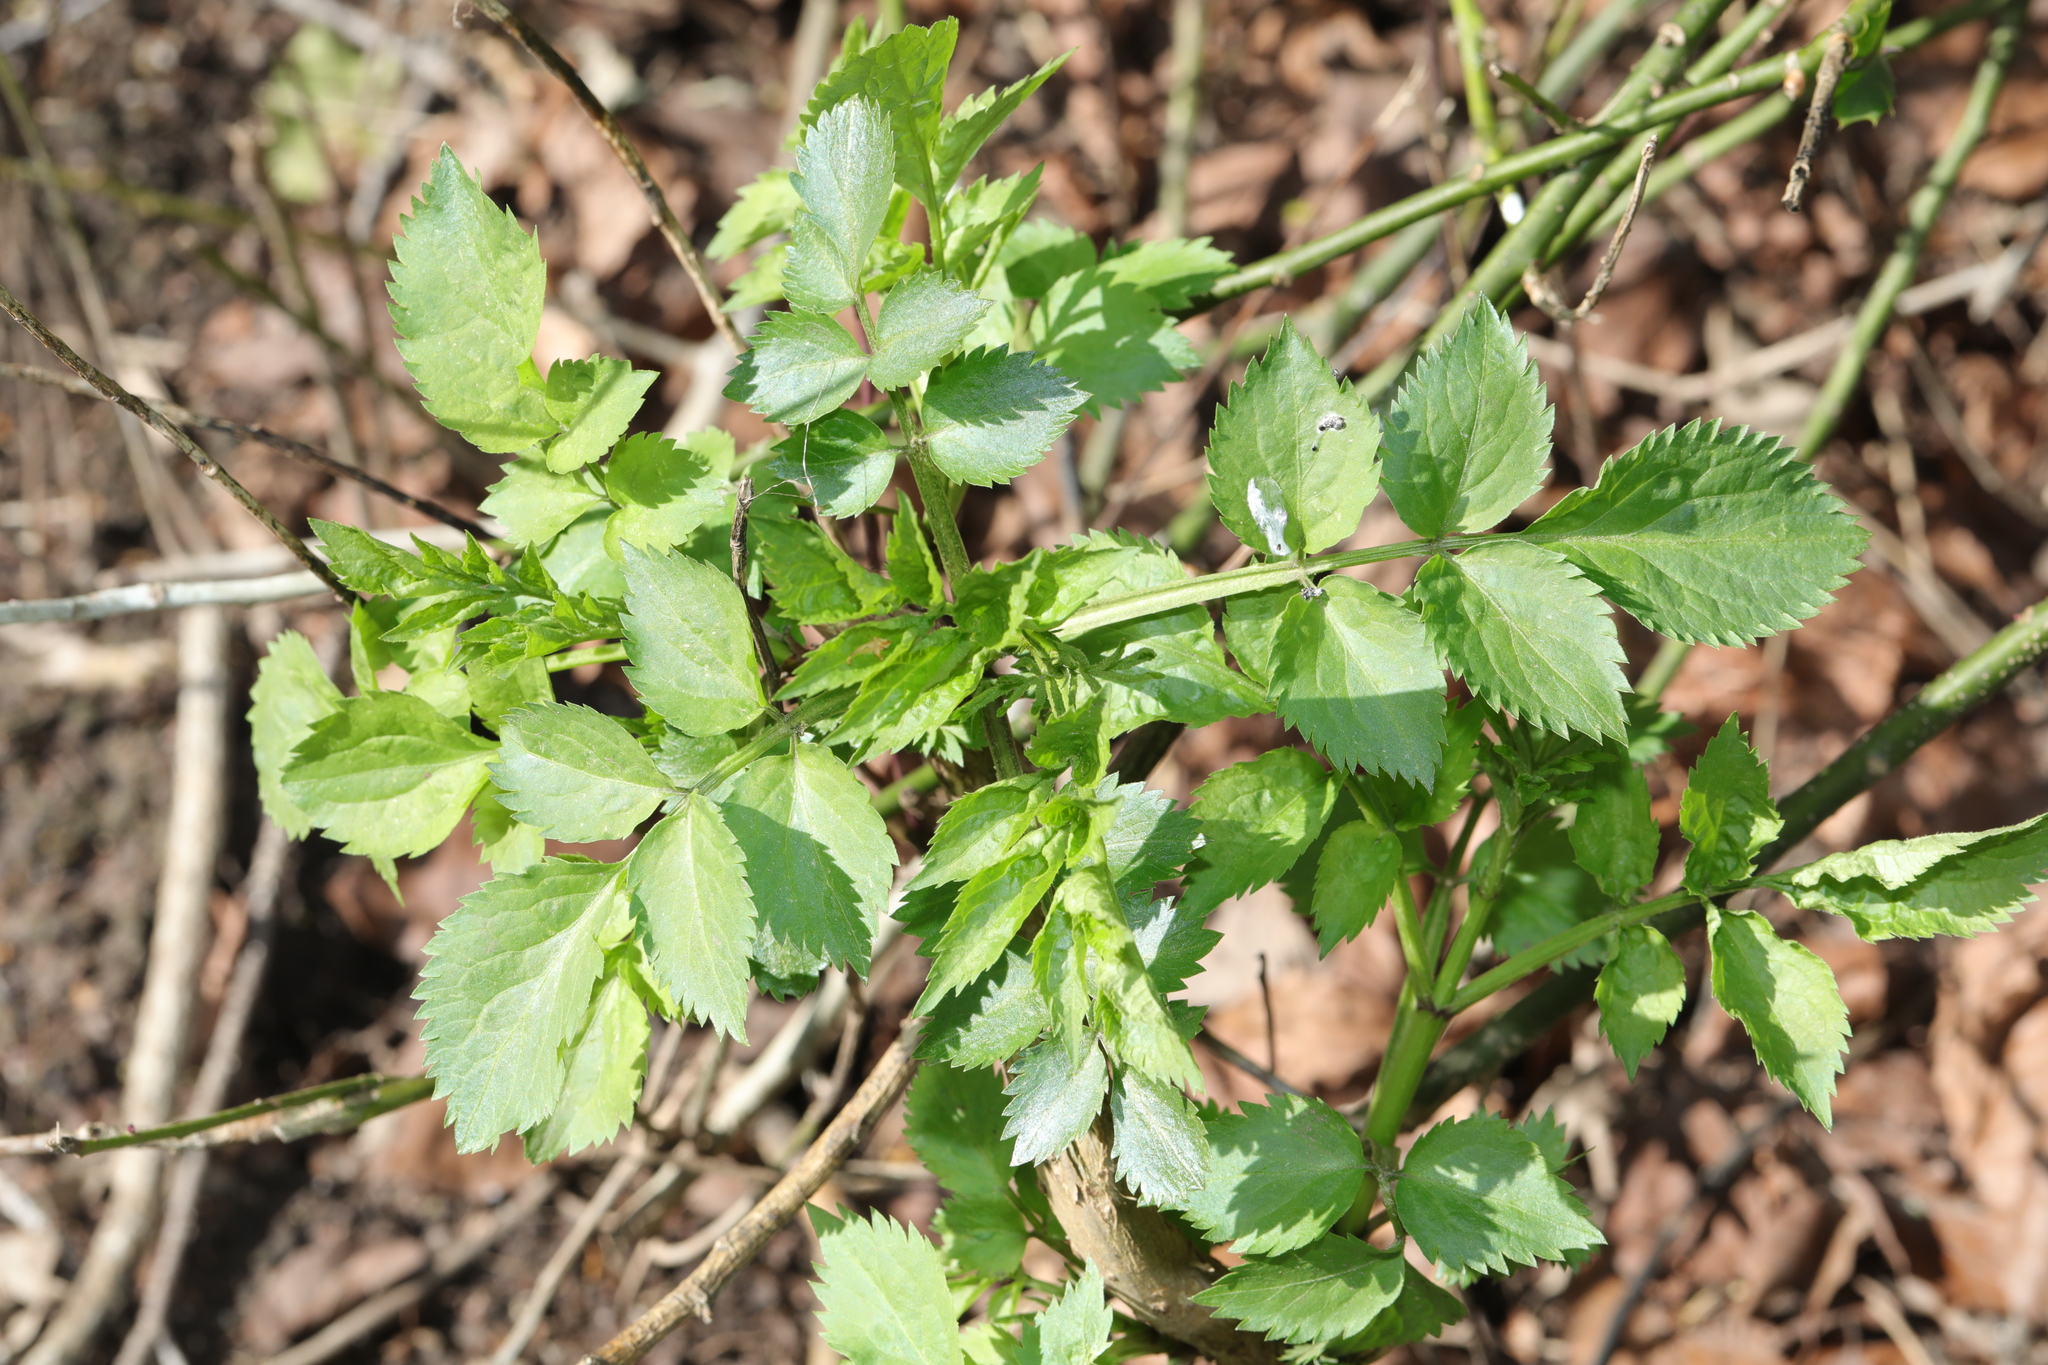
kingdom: Plantae
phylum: Tracheophyta
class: Magnoliopsida
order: Dipsacales
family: Viburnaceae
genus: Sambucus
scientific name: Sambucus nigra
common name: Elder
